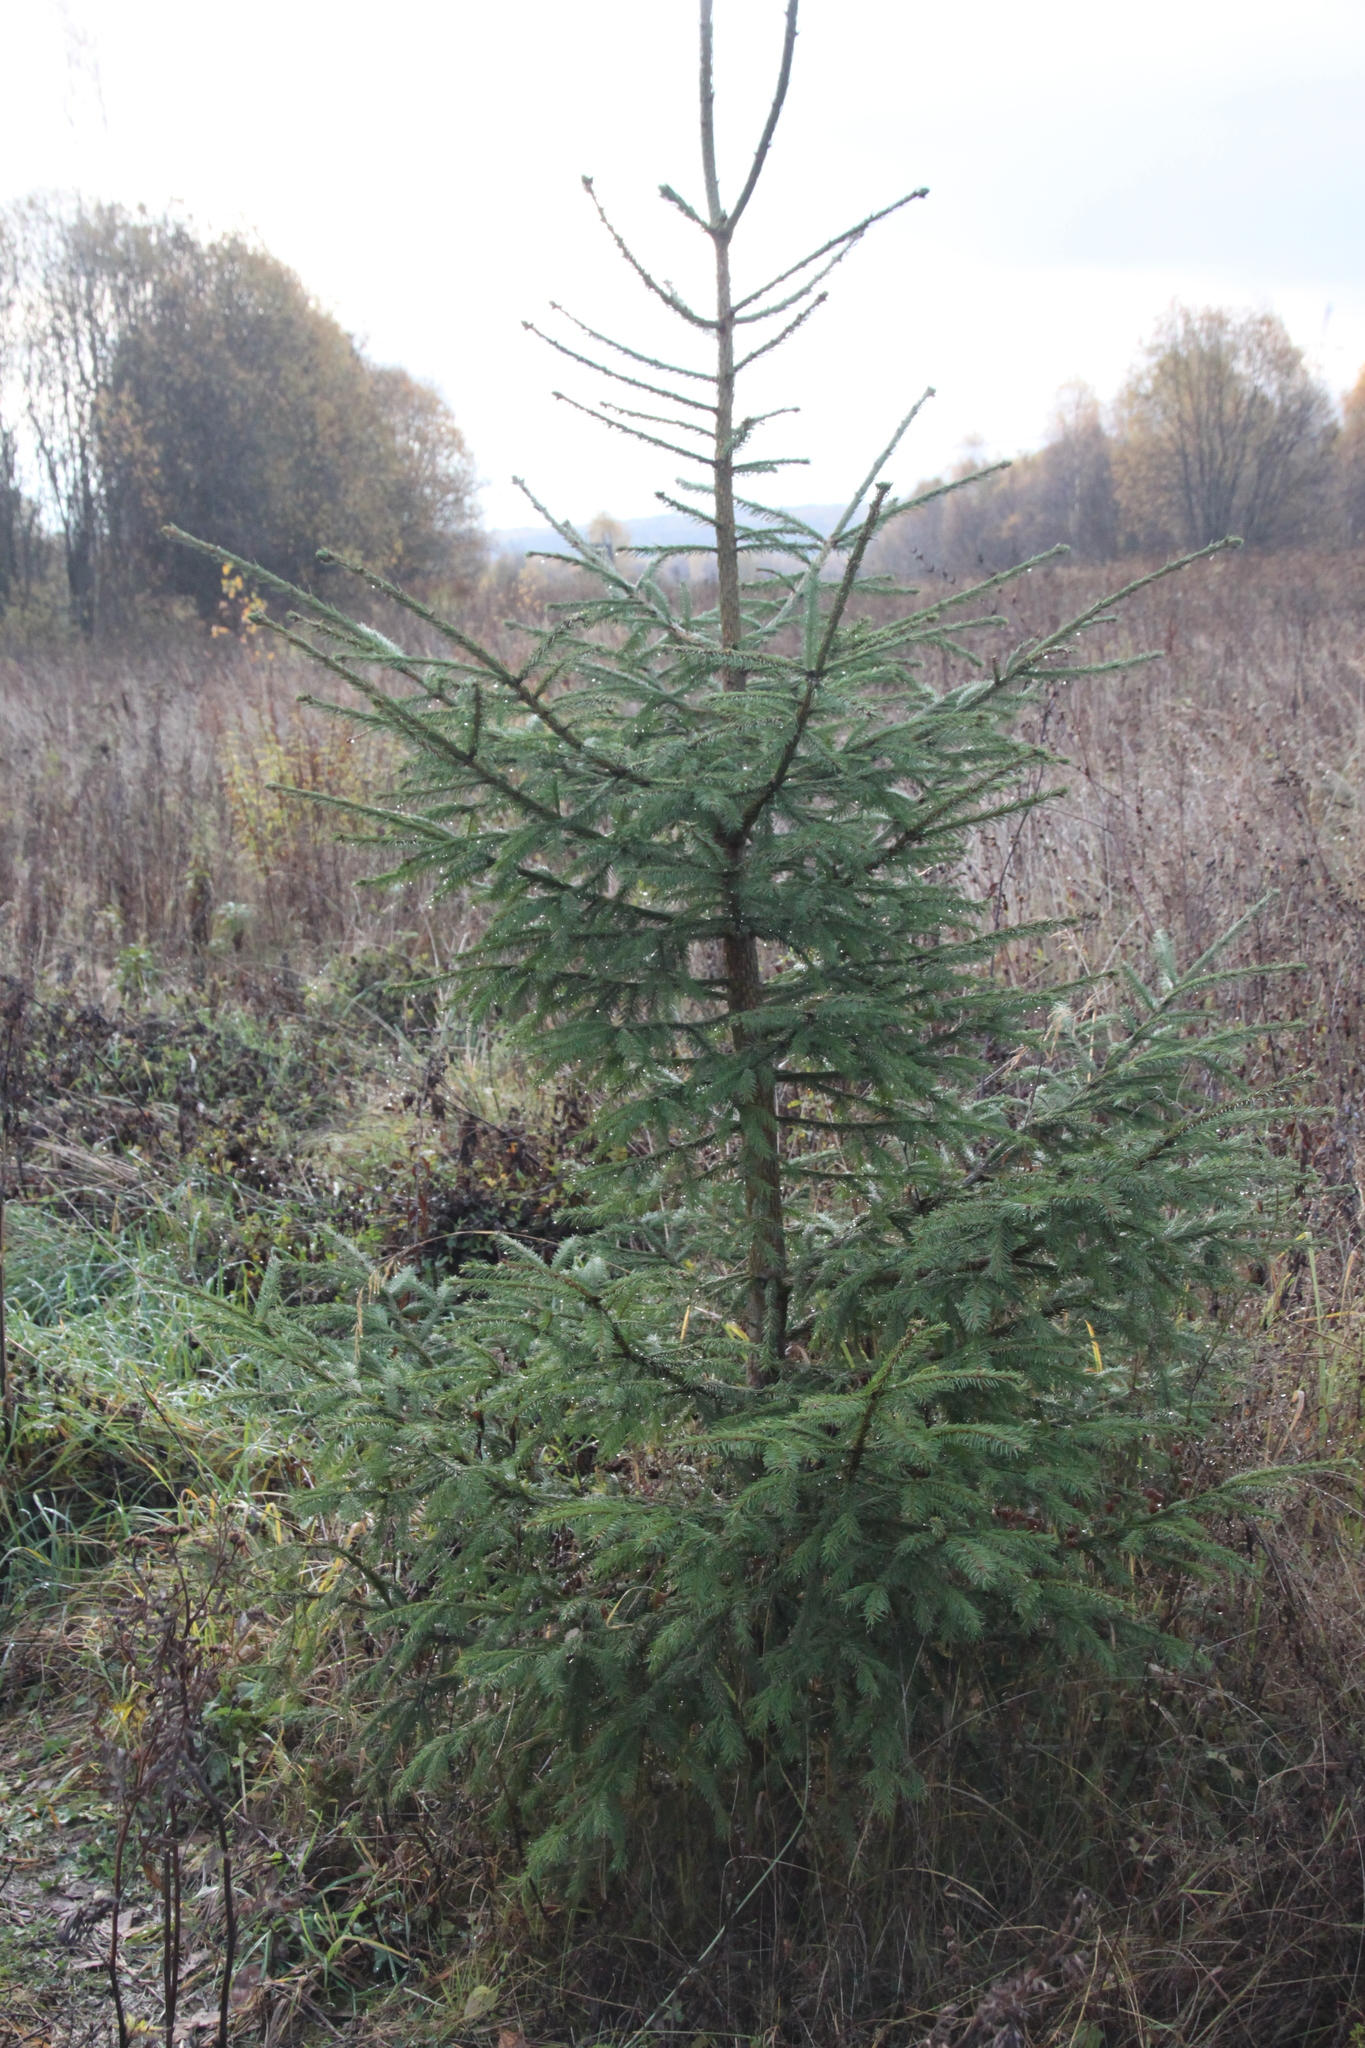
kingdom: Plantae
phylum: Tracheophyta
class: Pinopsida
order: Pinales
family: Pinaceae
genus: Picea
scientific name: Picea abies
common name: Norway spruce
